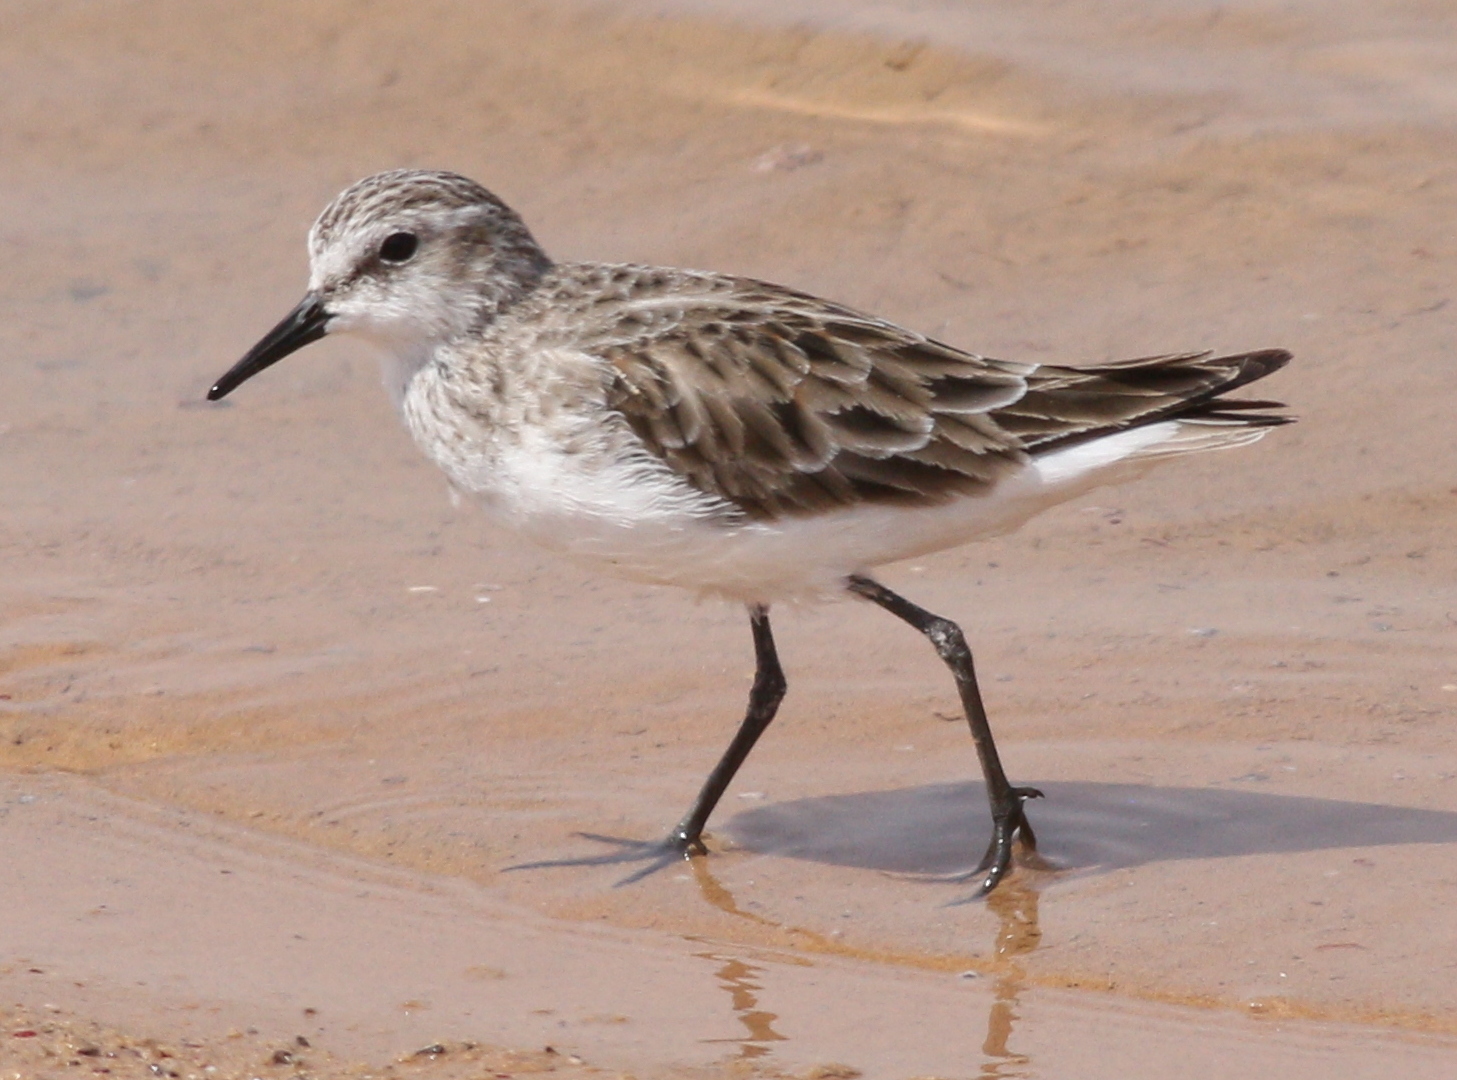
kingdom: Animalia
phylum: Chordata
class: Aves
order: Charadriiformes
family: Scolopacidae
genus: Calidris
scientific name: Calidris minuta
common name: Little stint
